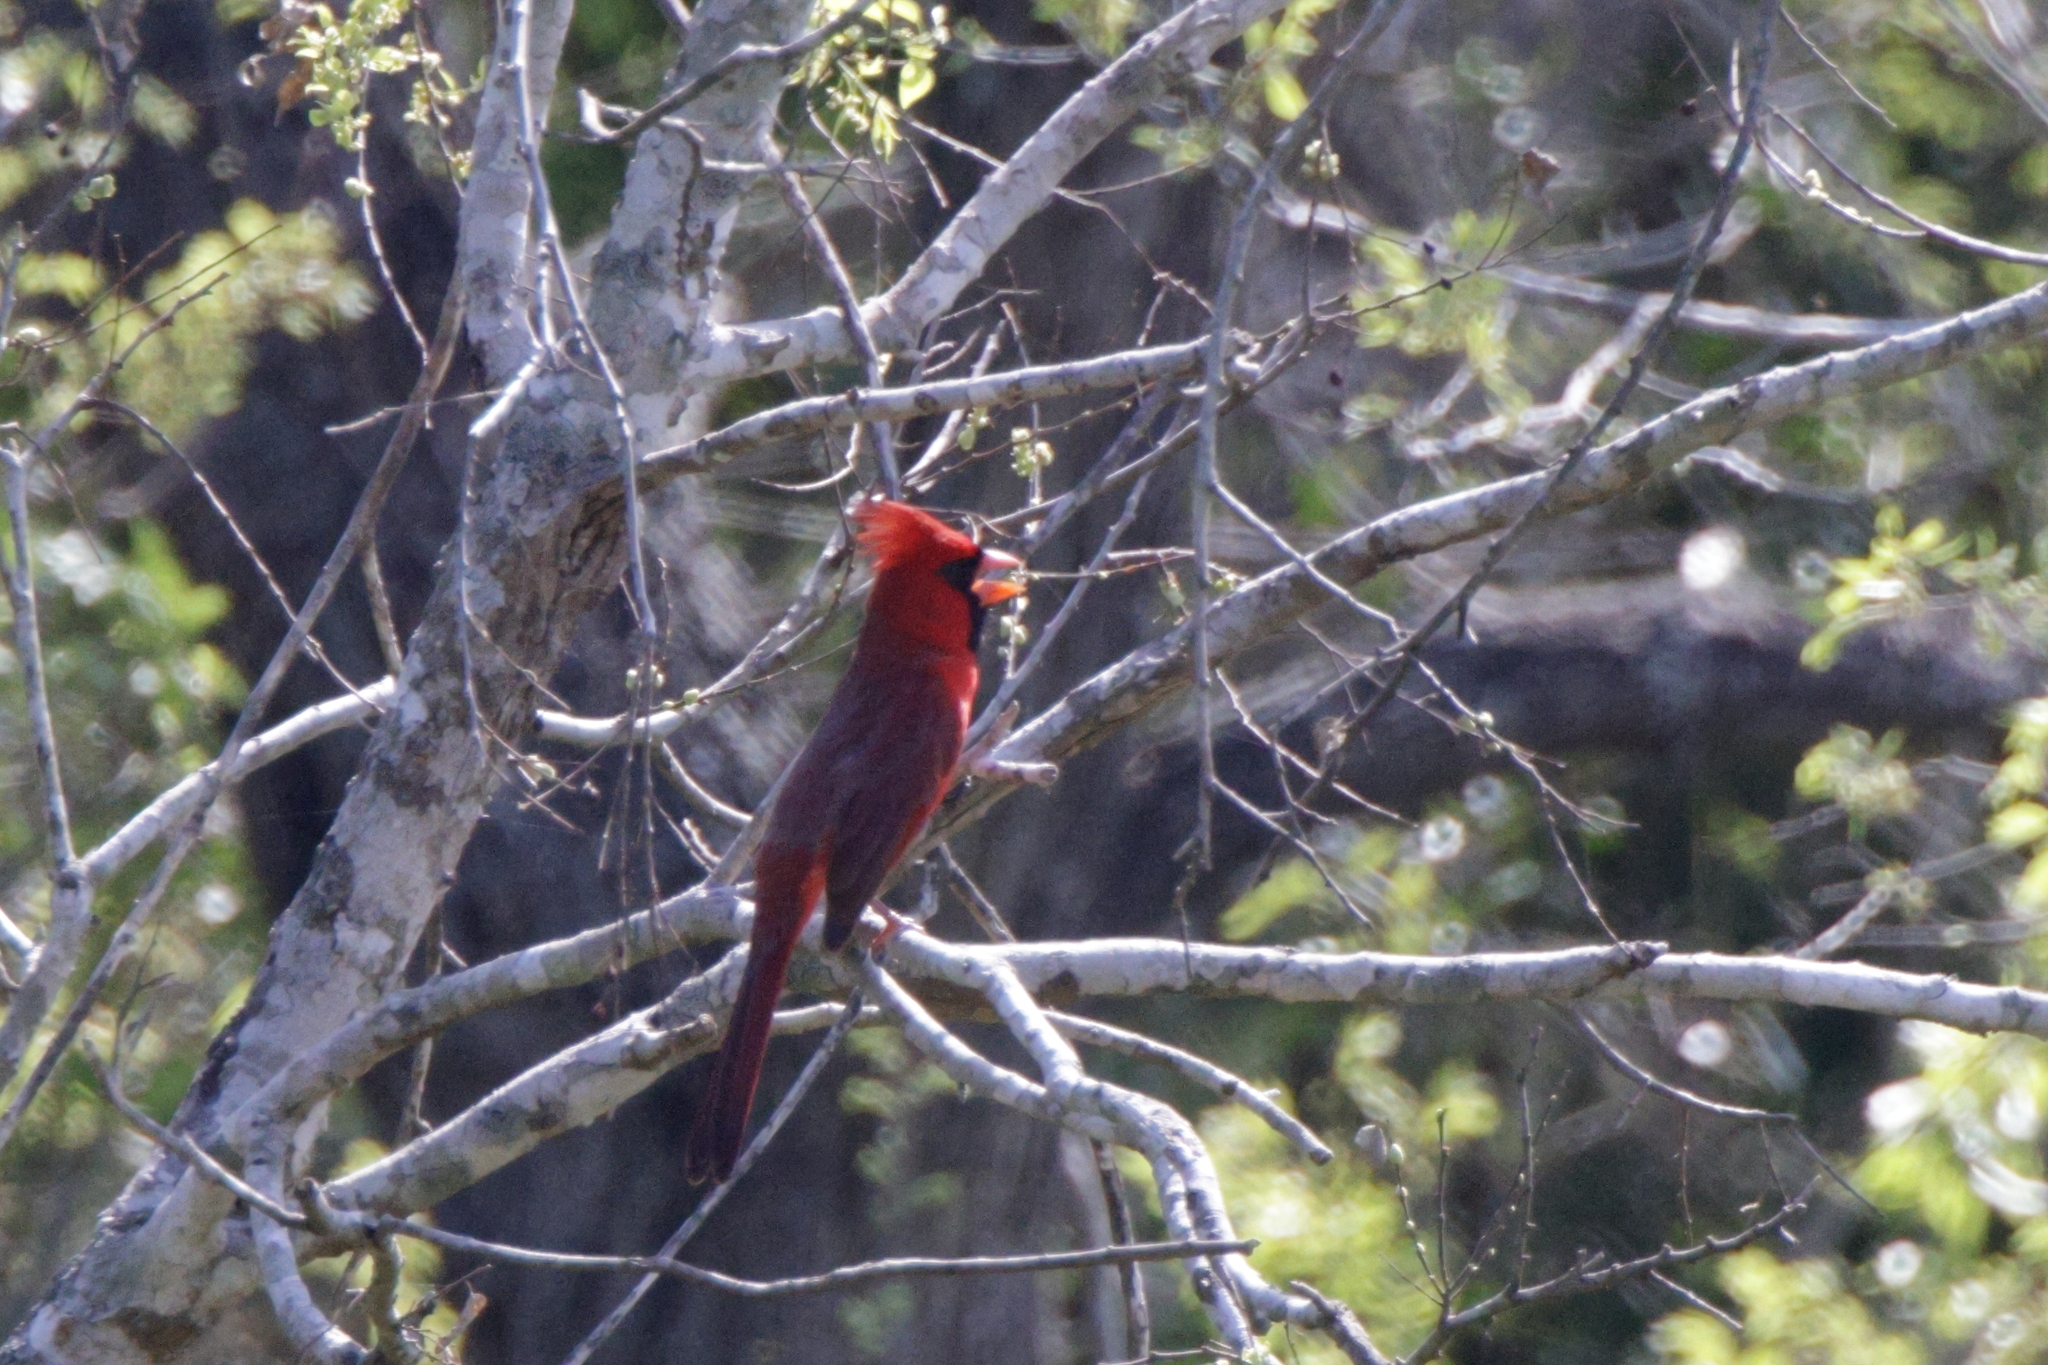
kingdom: Animalia
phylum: Chordata
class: Aves
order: Passeriformes
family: Cardinalidae
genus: Cardinalis
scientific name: Cardinalis cardinalis
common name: Northern cardinal
